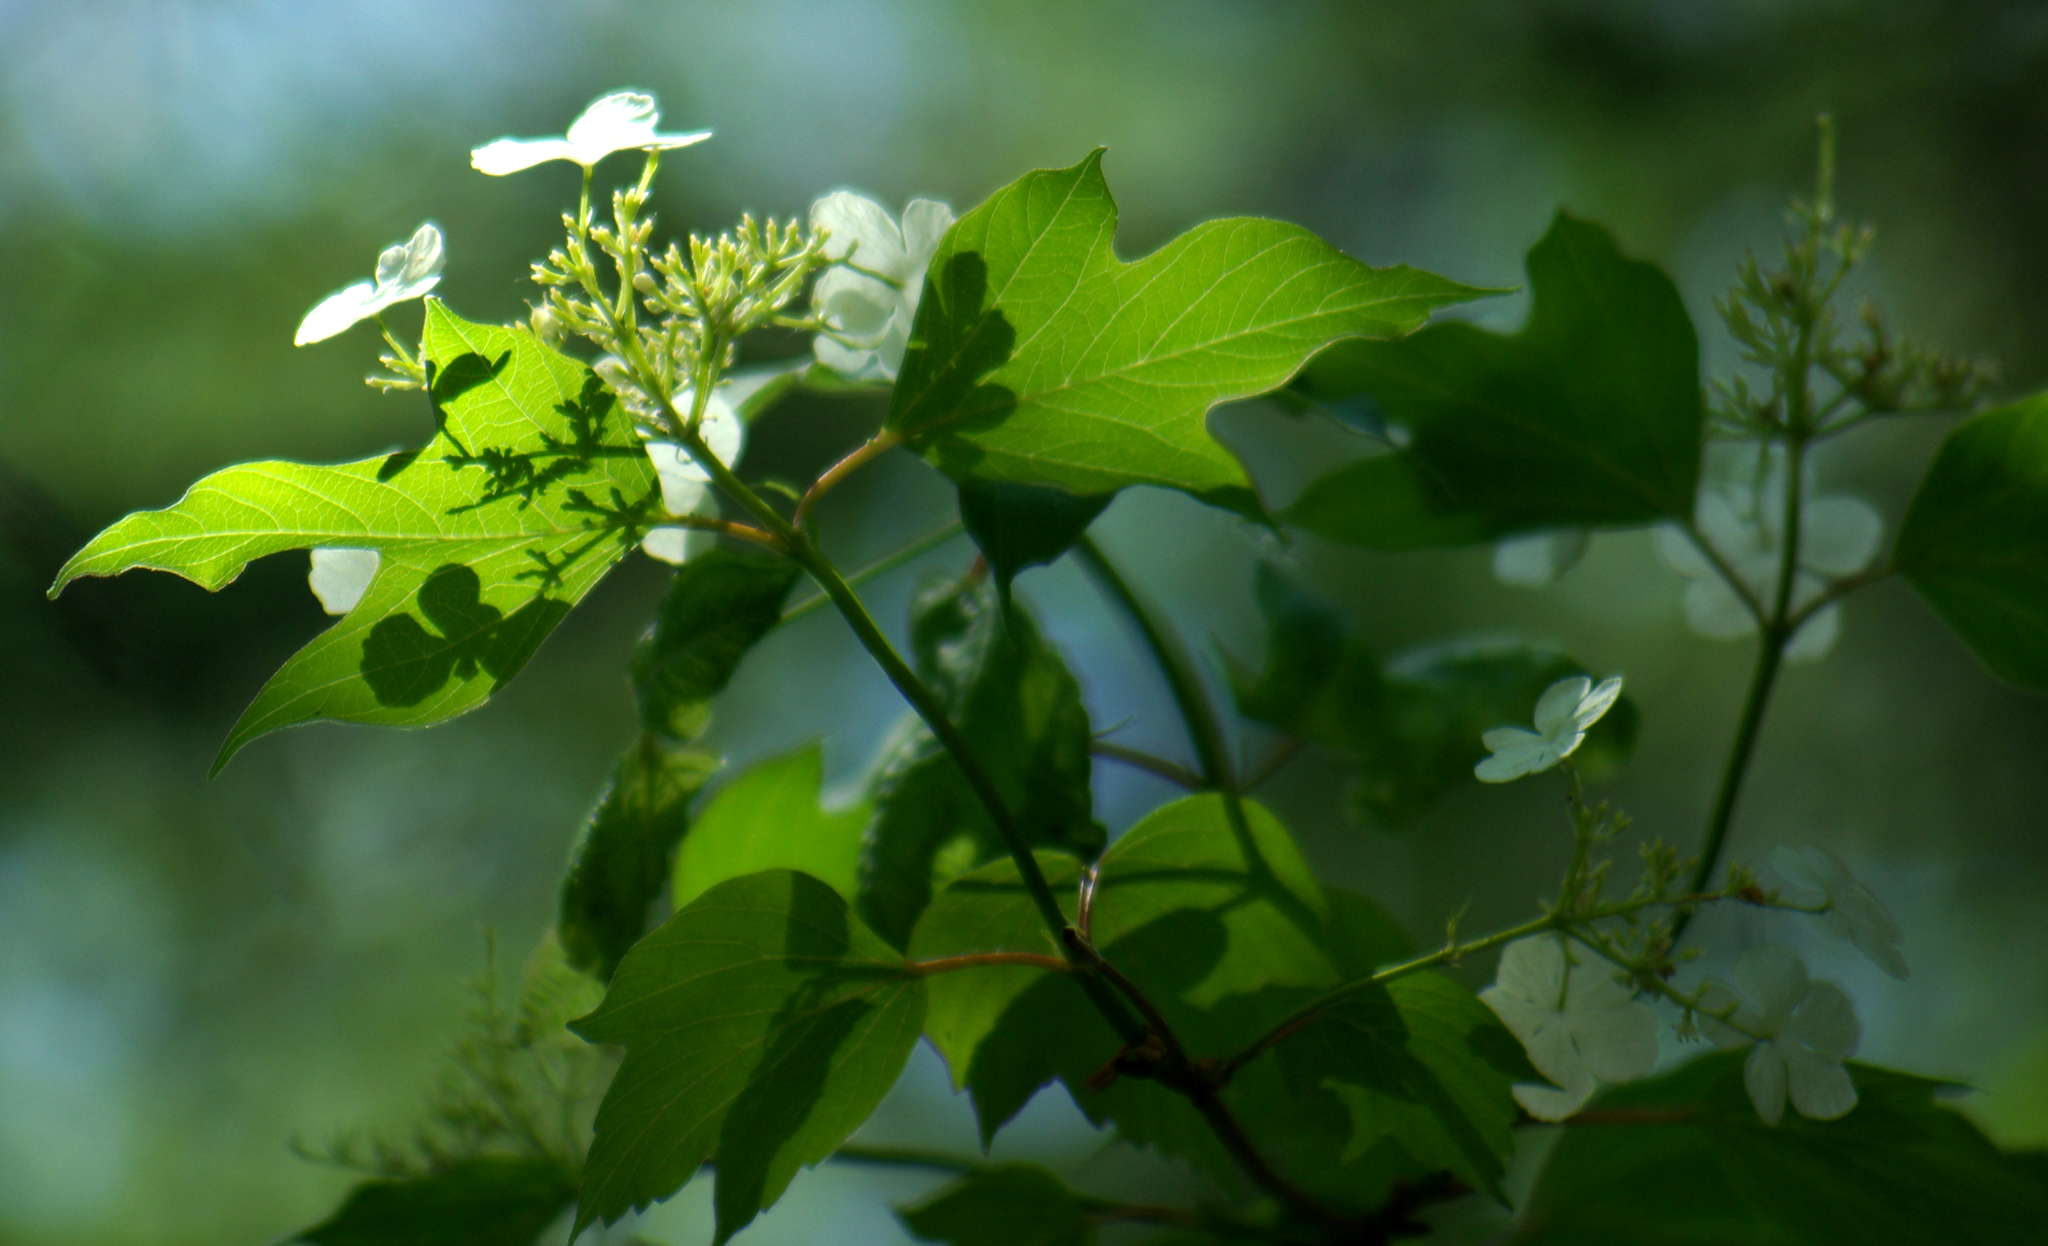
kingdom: Plantae
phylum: Tracheophyta
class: Magnoliopsida
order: Dipsacales
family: Viburnaceae
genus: Viburnum
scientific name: Viburnum trilobum
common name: American cranberrybush
